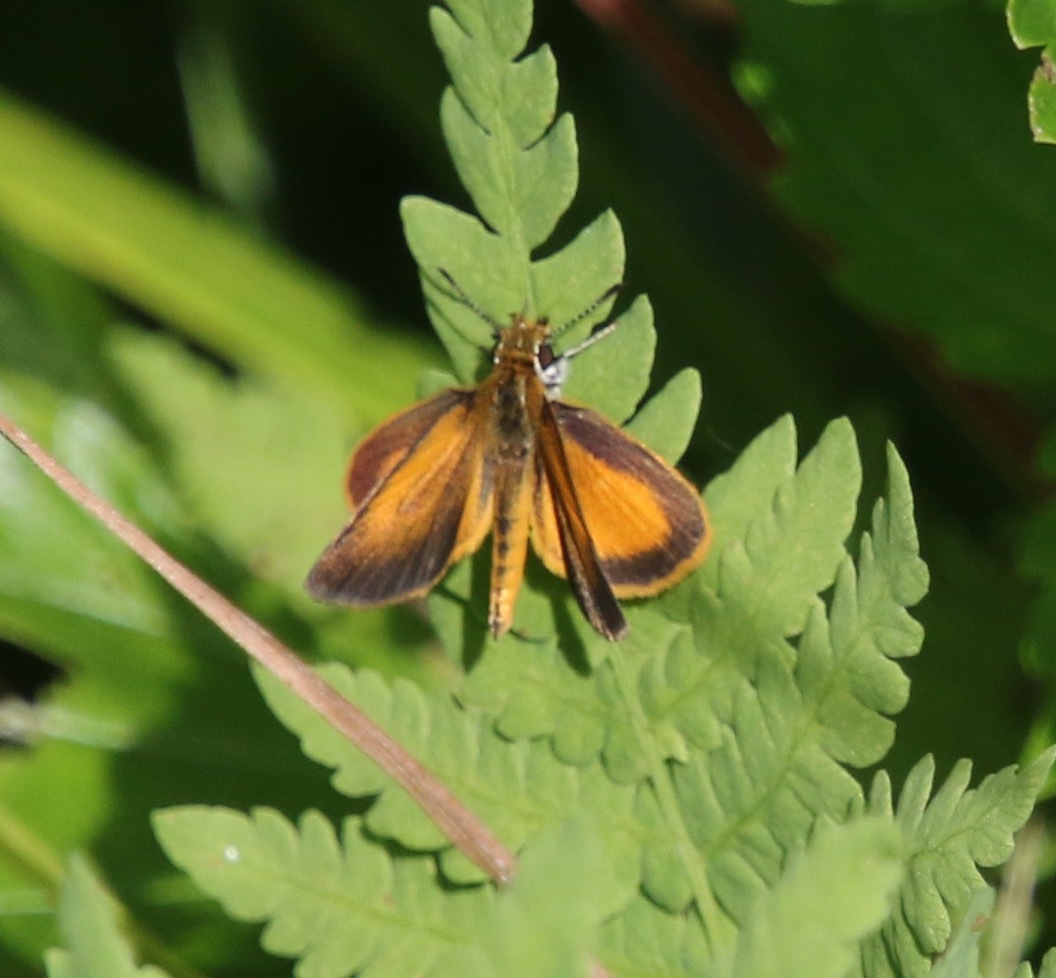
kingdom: Animalia
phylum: Arthropoda
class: Insecta
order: Lepidoptera
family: Hesperiidae
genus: Ancyloxypha
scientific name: Ancyloxypha numitor
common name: Least skipper
